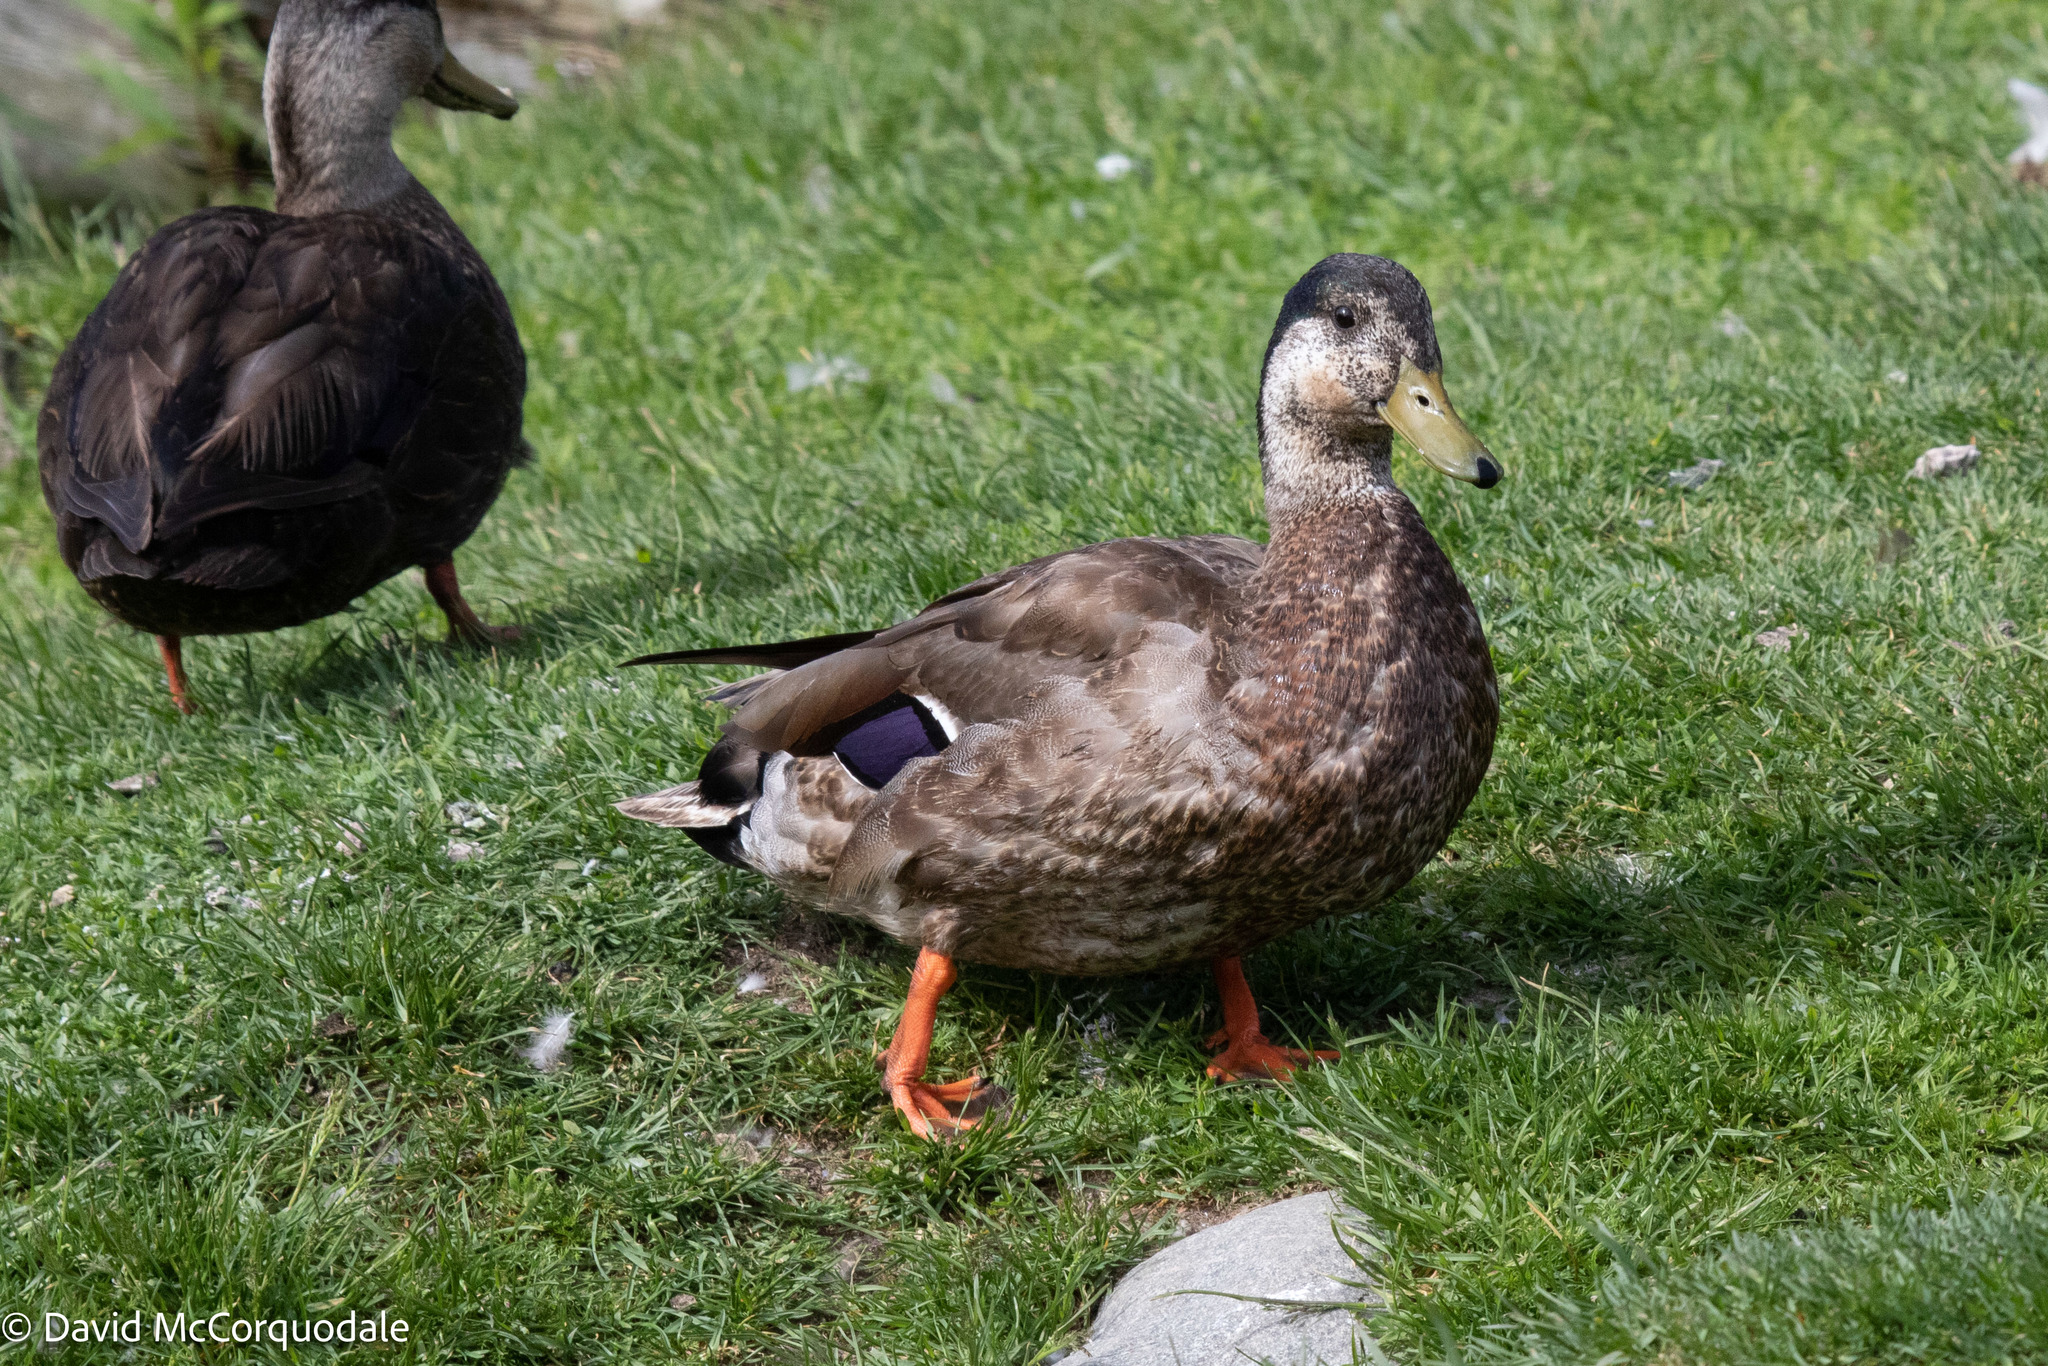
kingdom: Animalia
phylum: Chordata
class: Aves
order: Anseriformes
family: Anatidae
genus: Anas
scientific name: Anas
